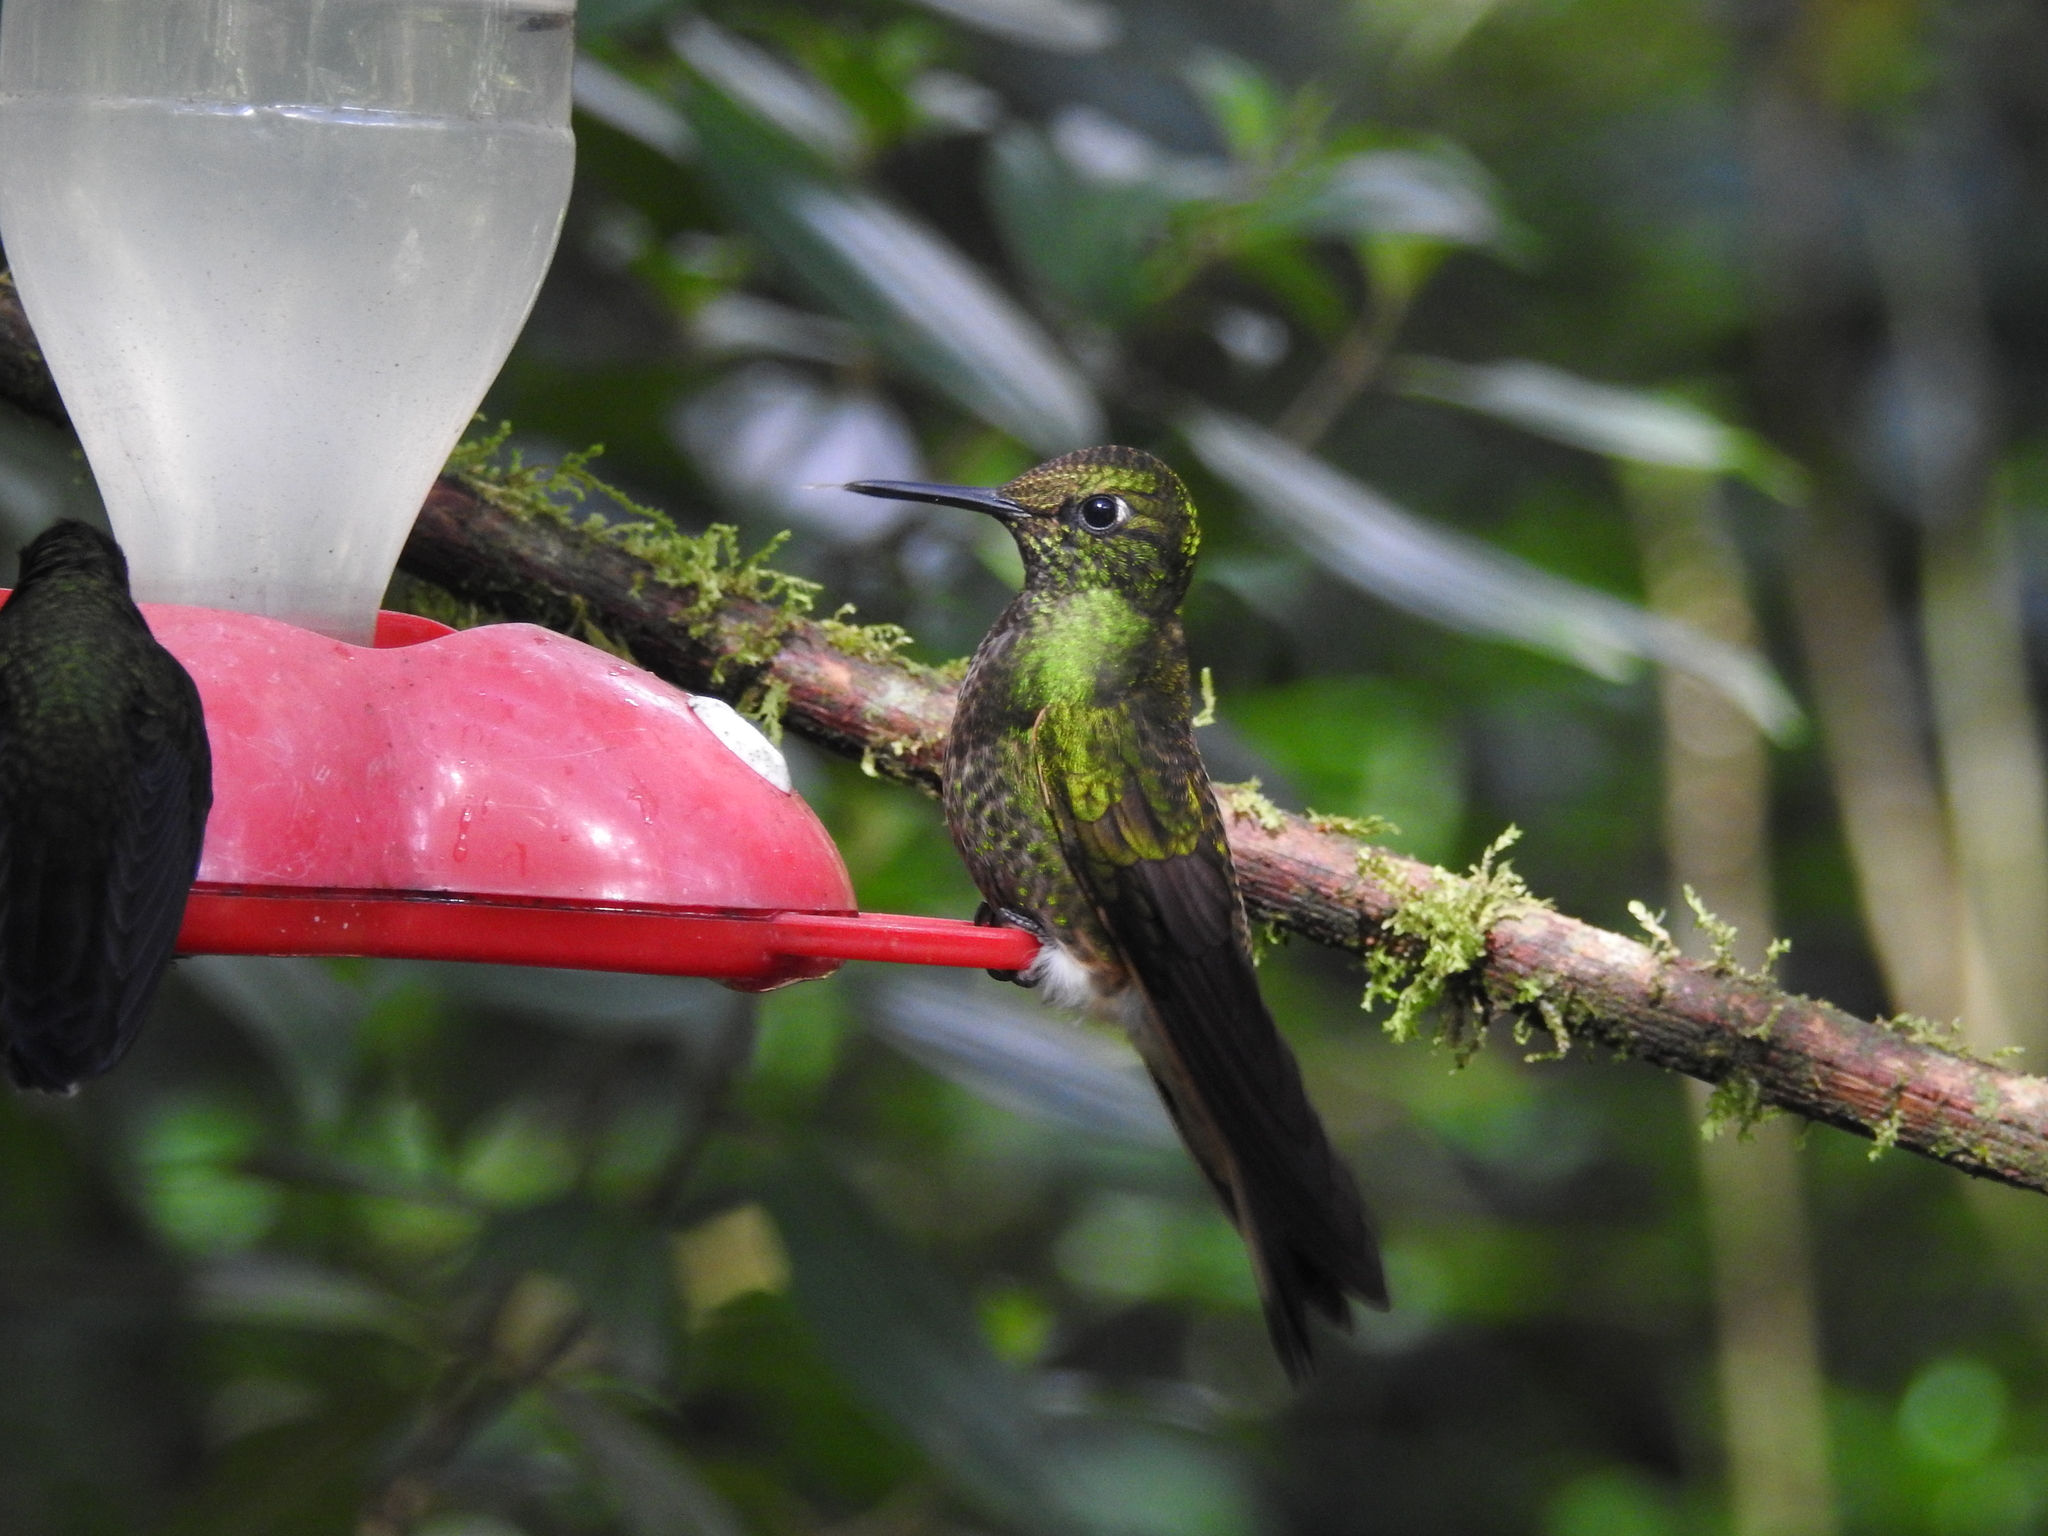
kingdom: Animalia
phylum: Chordata
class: Aves
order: Apodiformes
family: Trochilidae
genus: Boissonneaua
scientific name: Boissonneaua flavescens
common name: Buff-tailed coronet
